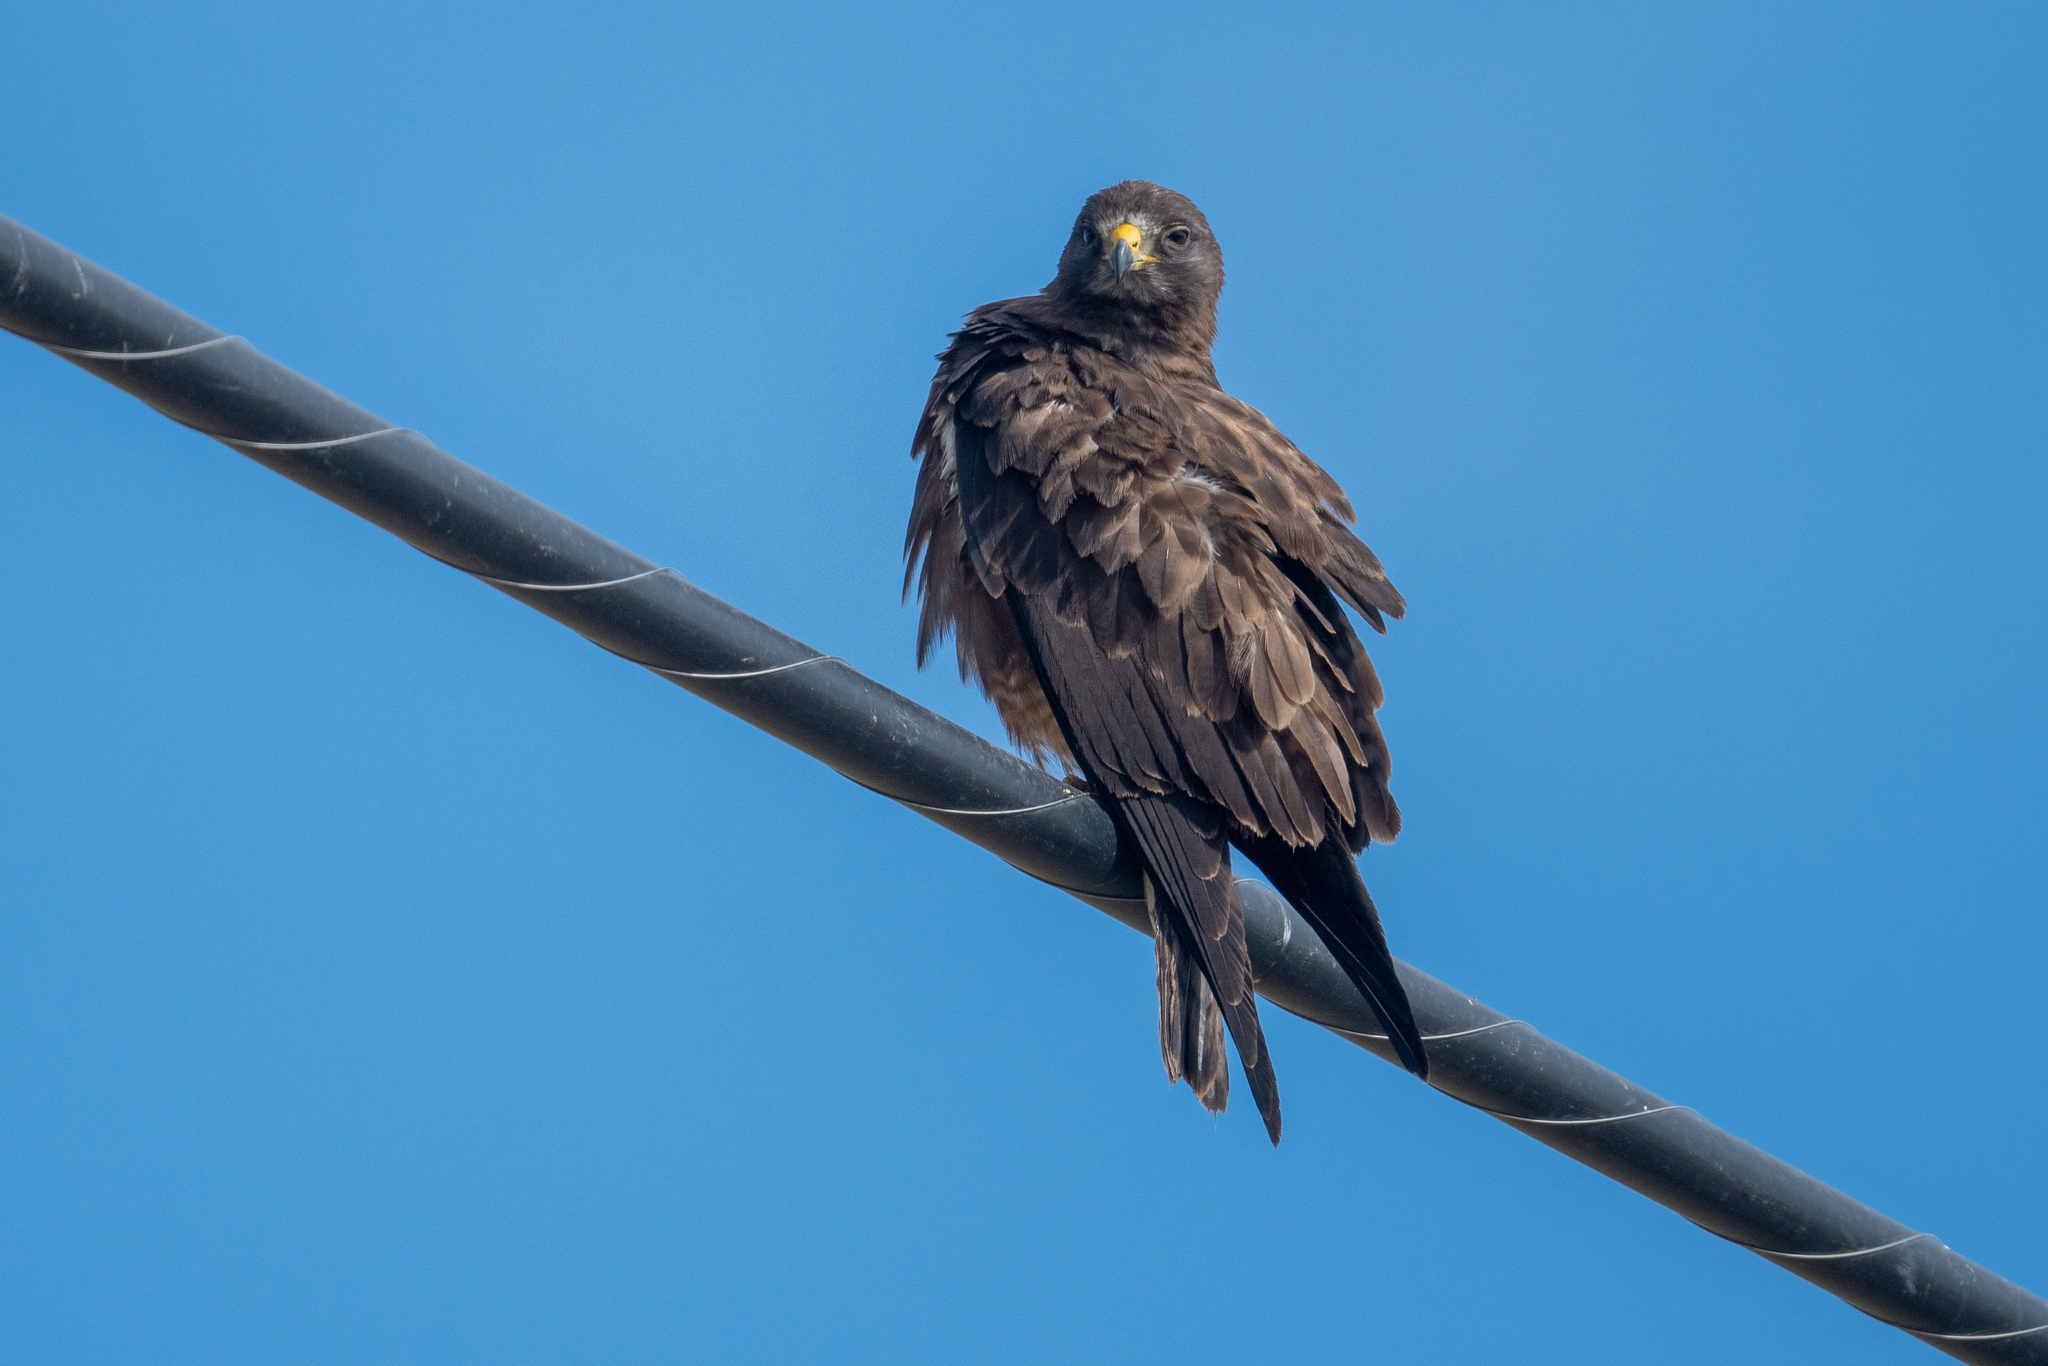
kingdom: Animalia
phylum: Chordata
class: Aves
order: Accipitriformes
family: Accipitridae
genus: Buteo
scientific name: Buteo swainsoni
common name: Swainson's hawk
